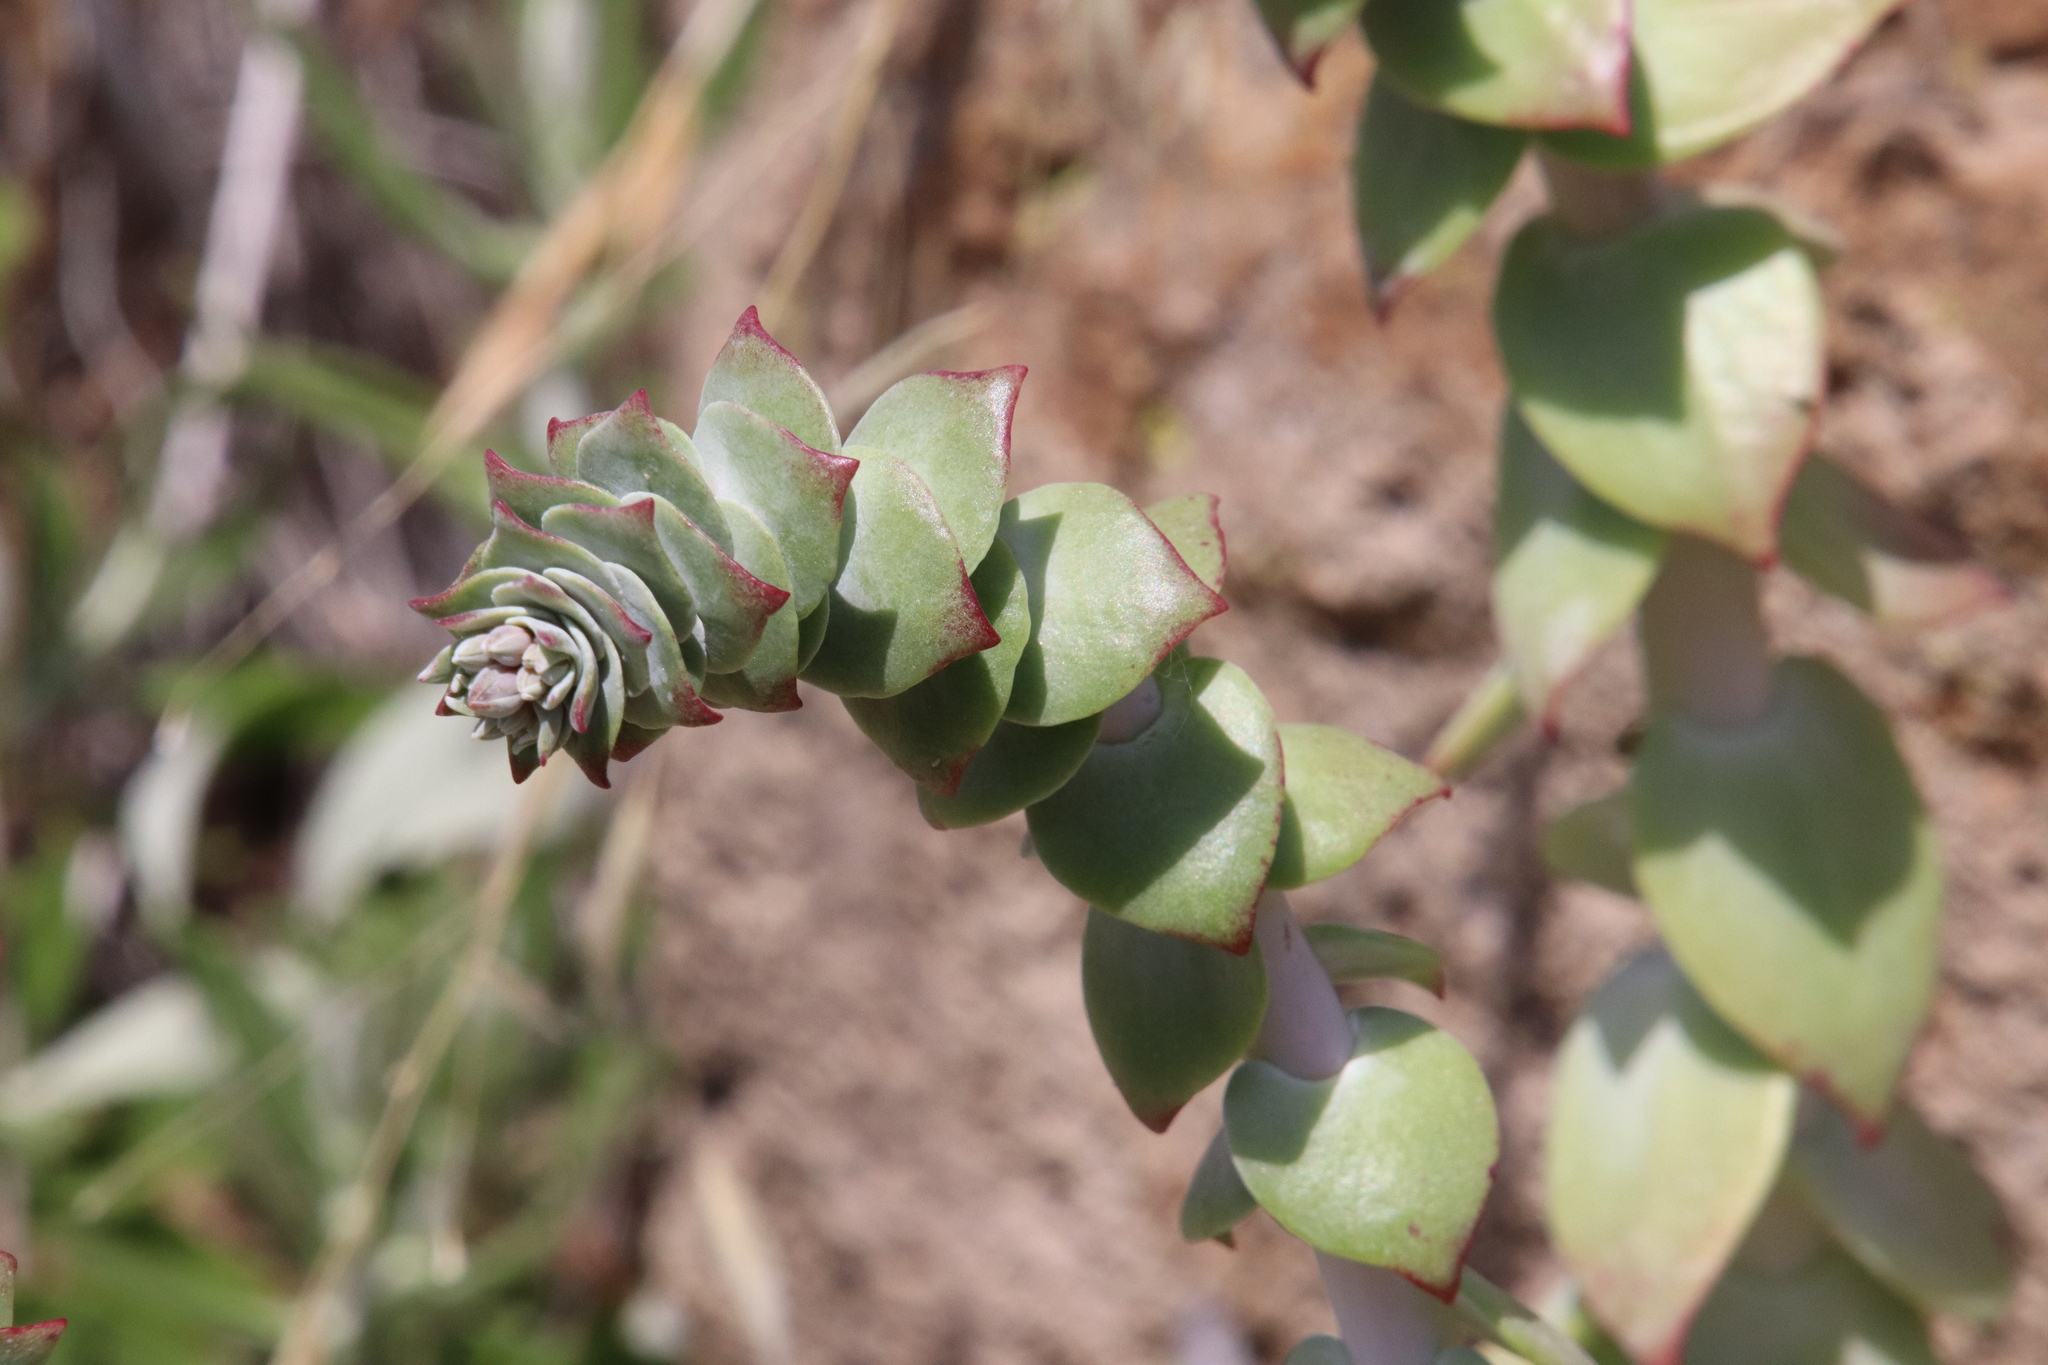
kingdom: Plantae
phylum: Tracheophyta
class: Magnoliopsida
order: Saxifragales
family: Crassulaceae
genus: Dudleya
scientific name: Dudleya pulverulenta
